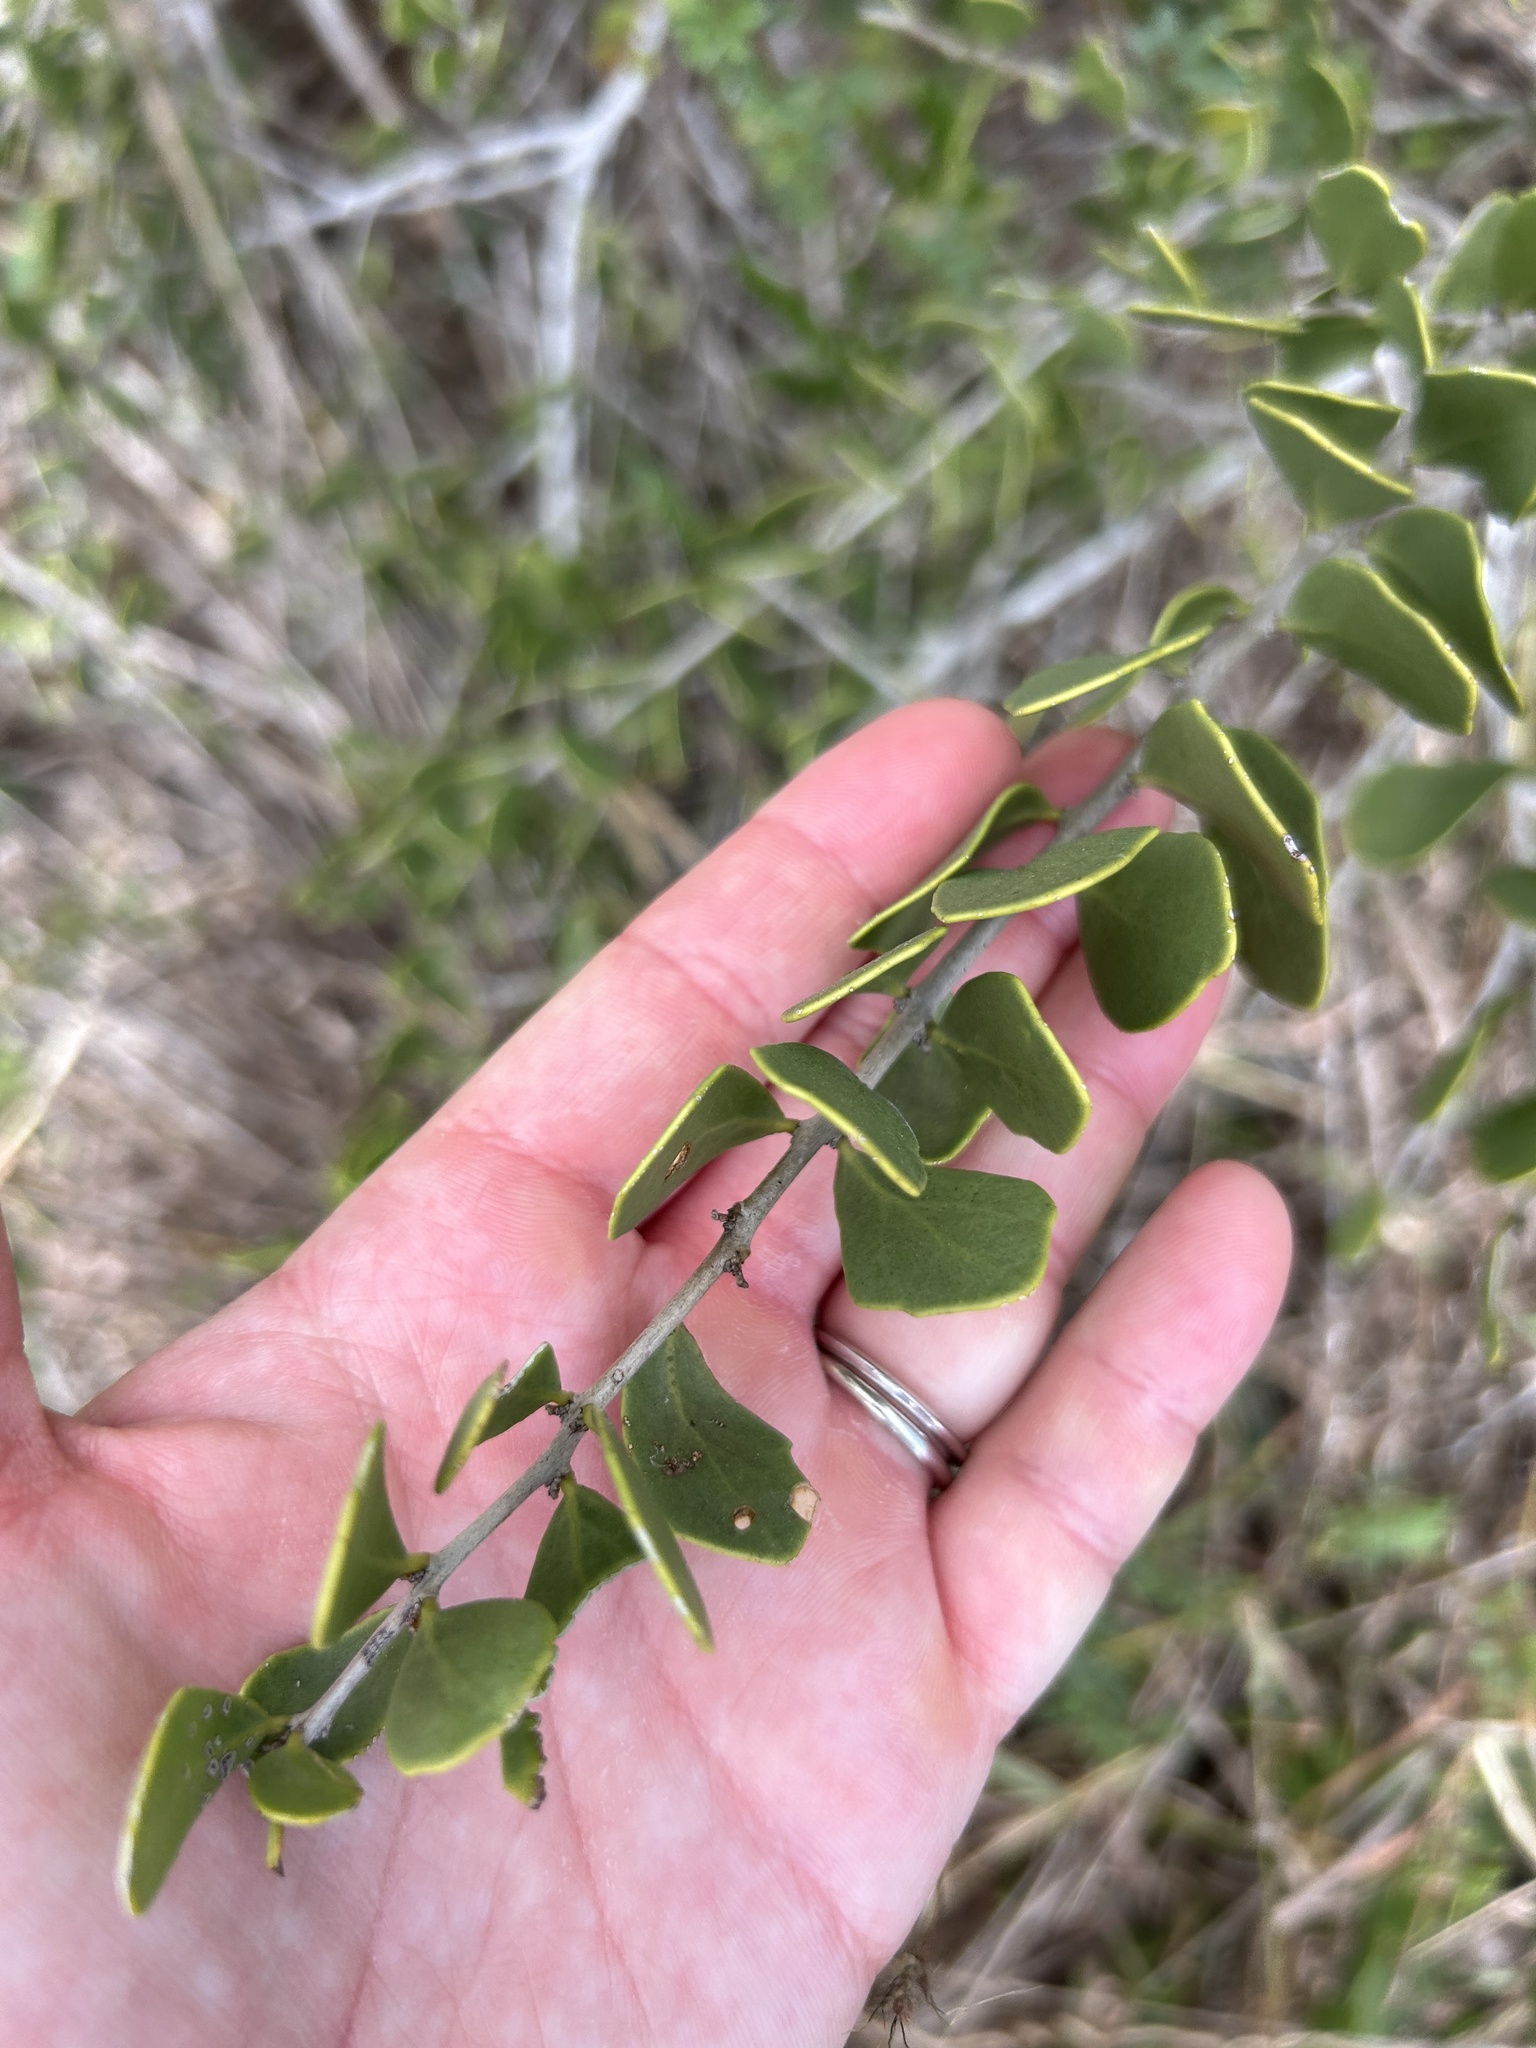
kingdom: Plantae
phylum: Tracheophyta
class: Magnoliopsida
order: Celastrales
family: Celastraceae
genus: Tricerma
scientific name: Tricerma phyllanthoides
